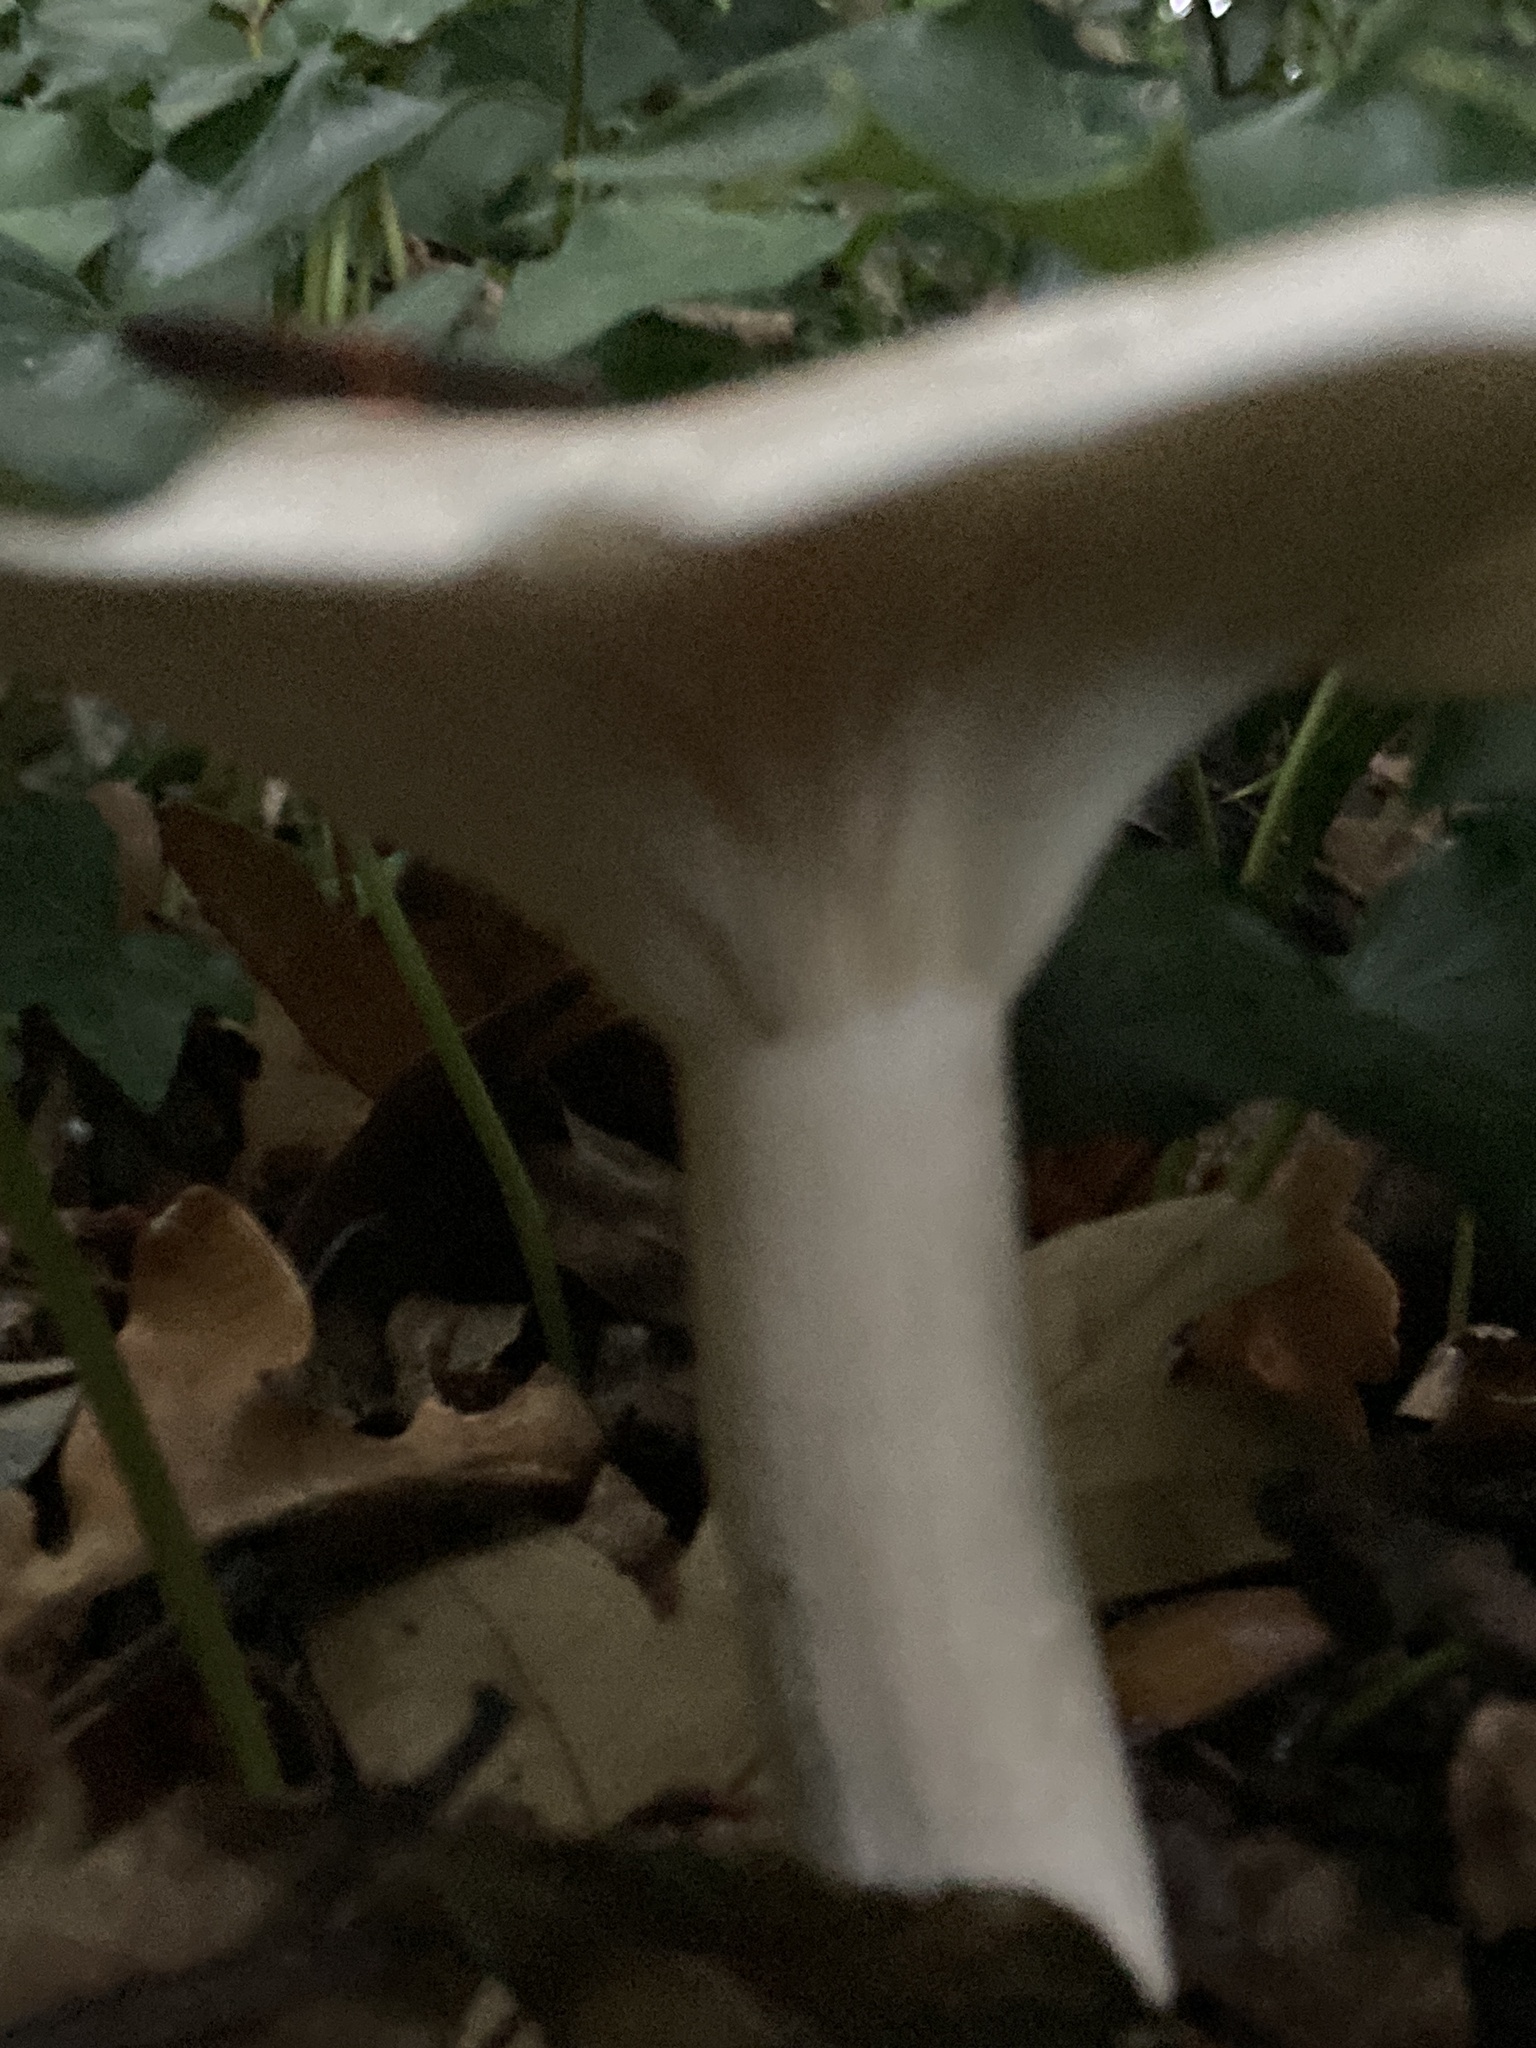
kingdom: Fungi
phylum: Basidiomycota
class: Agaricomycetes
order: Agaricales
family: Tricholomataceae
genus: Clitocybe
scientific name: Clitocybe nebularis
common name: Clouded agaric
